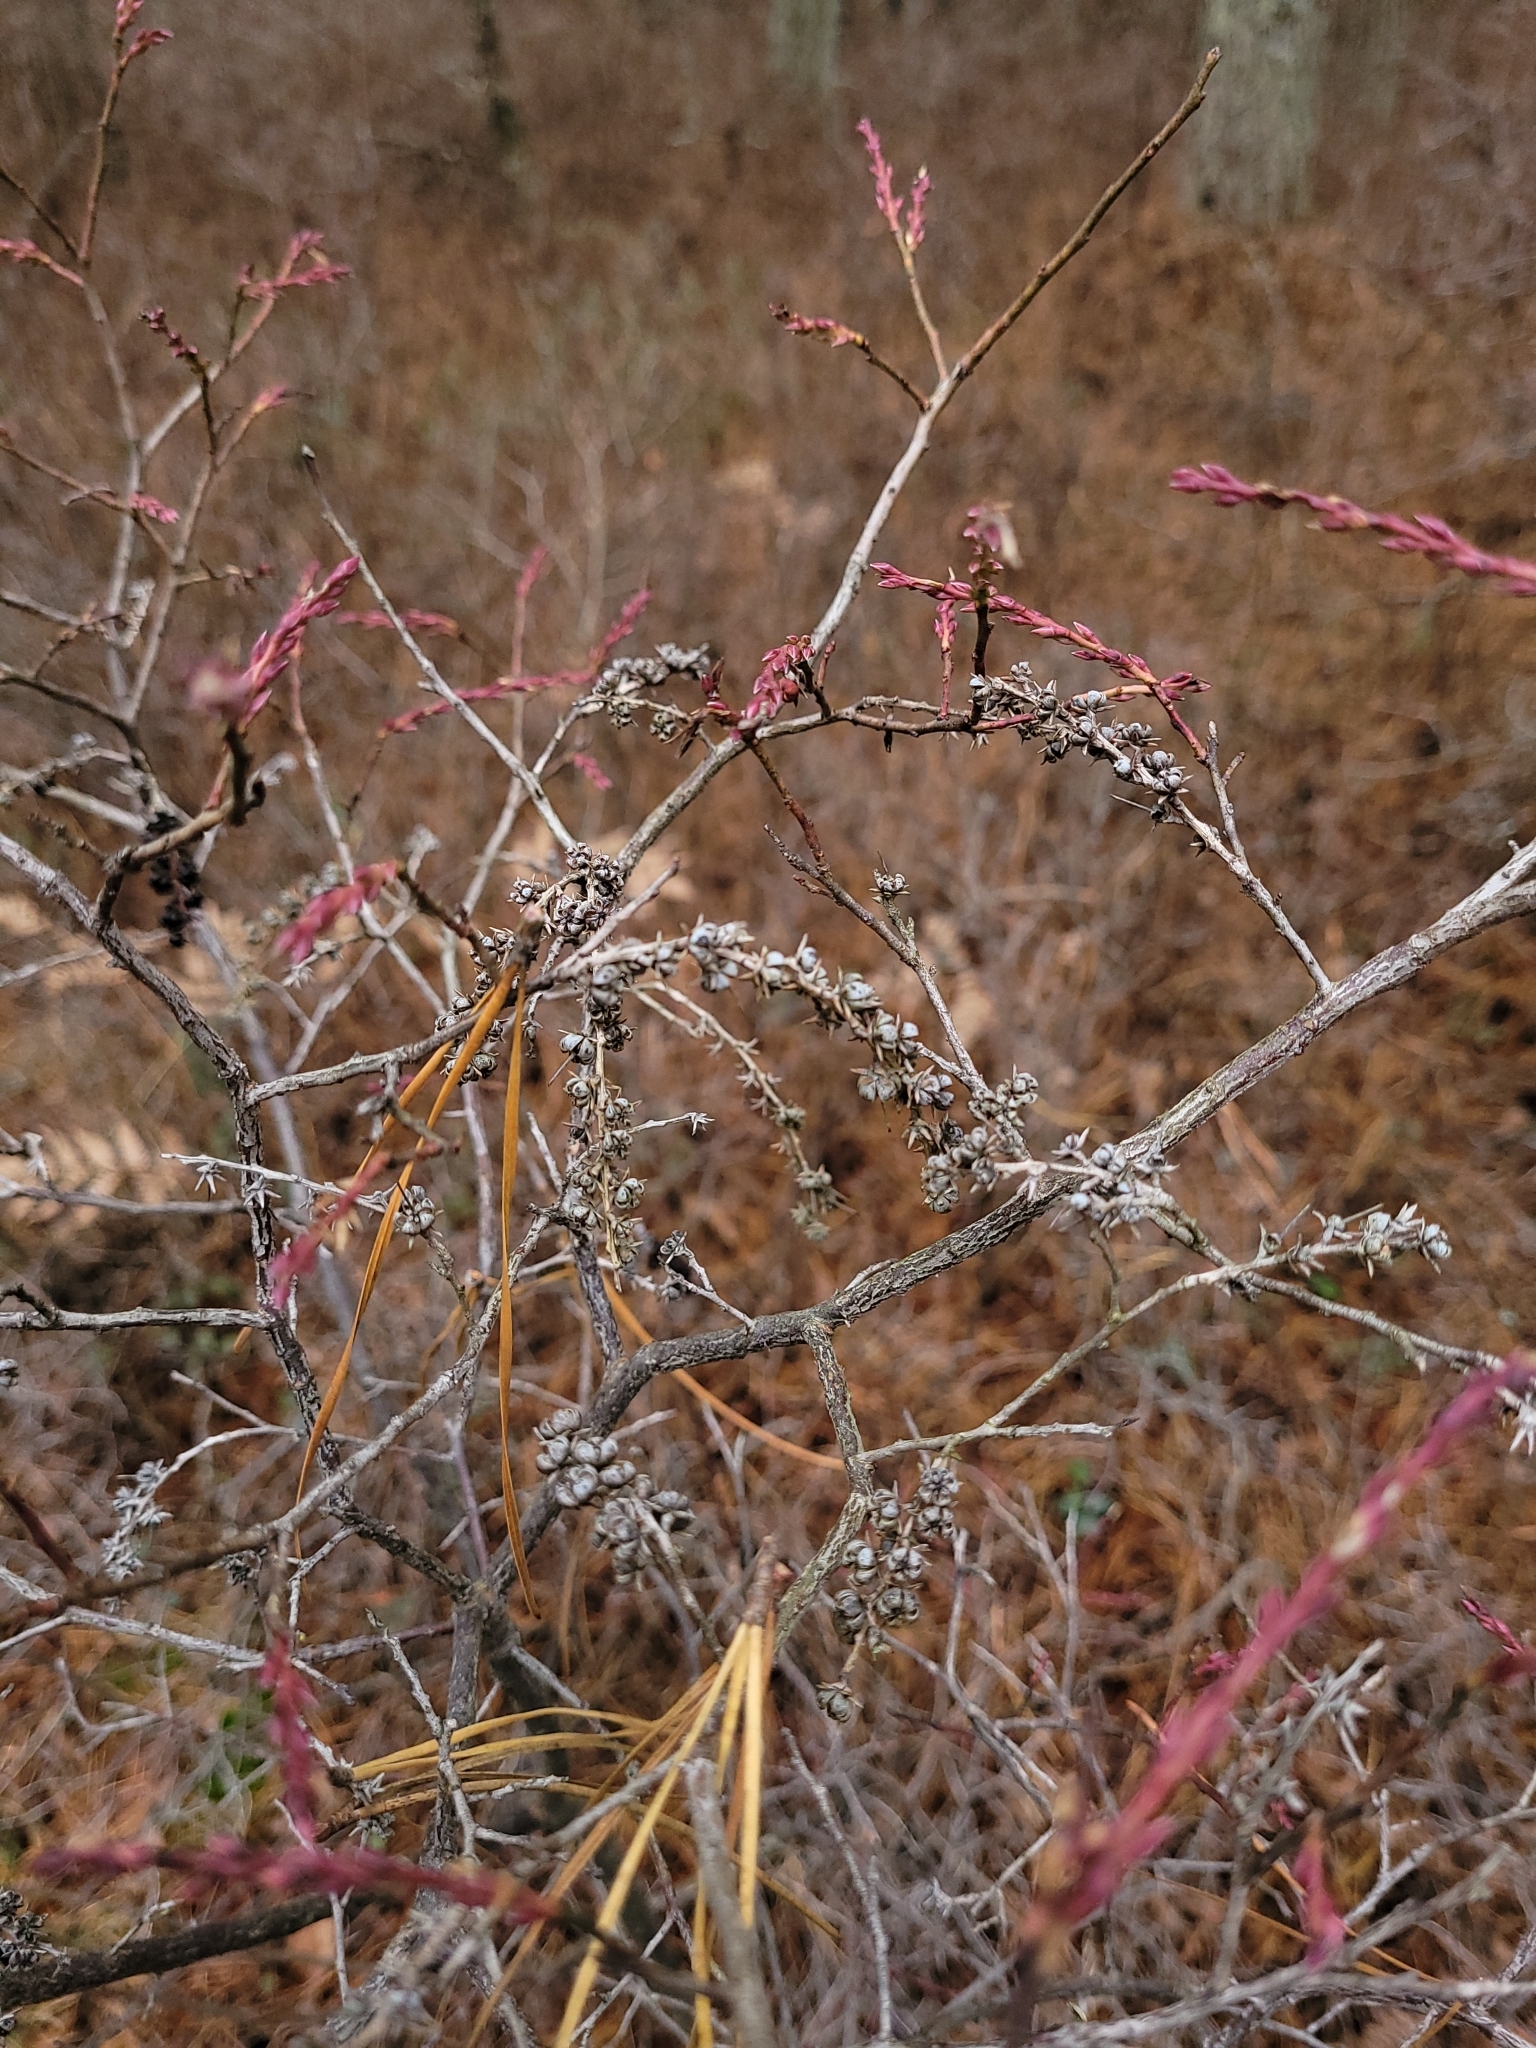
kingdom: Plantae
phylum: Tracheophyta
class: Magnoliopsida
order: Ericales
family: Ericaceae
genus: Eubotrys
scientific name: Eubotrys racemosa
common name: Fetterbush
